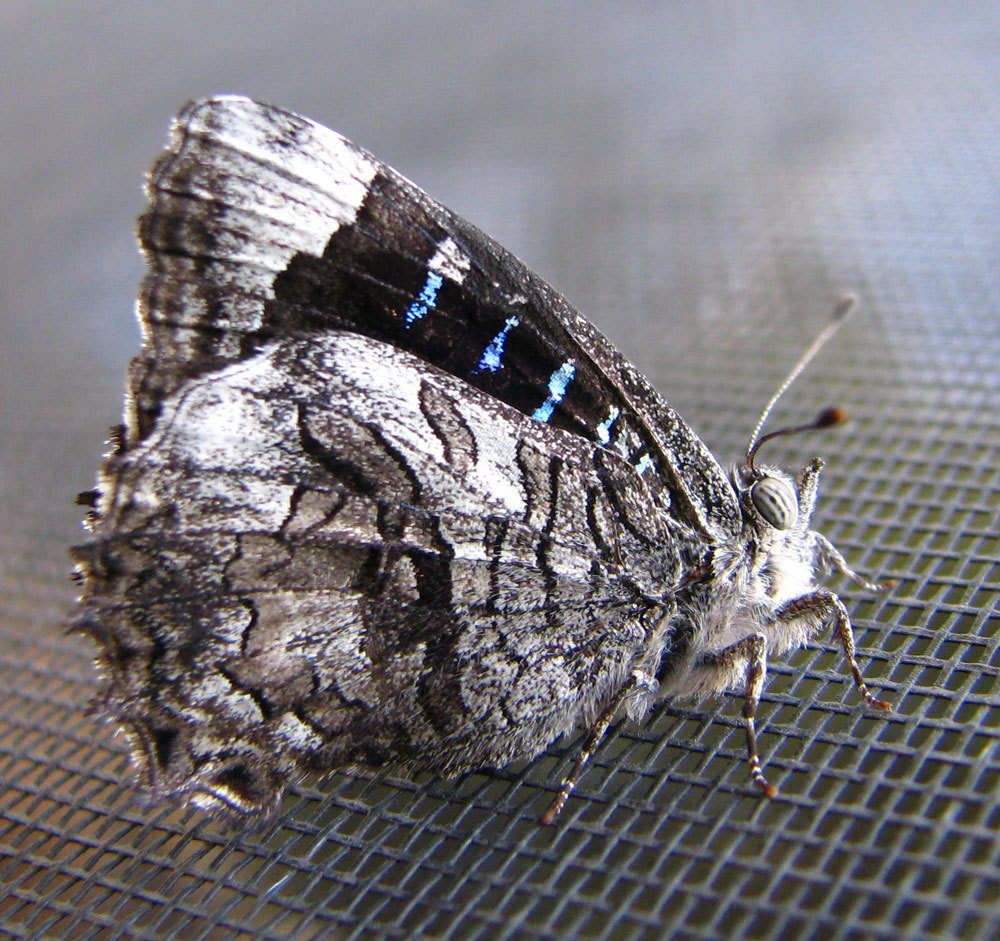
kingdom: Animalia
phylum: Arthropoda
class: Insecta
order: Lepidoptera
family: Lycaenidae
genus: Ogyris
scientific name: Ogyris olane
